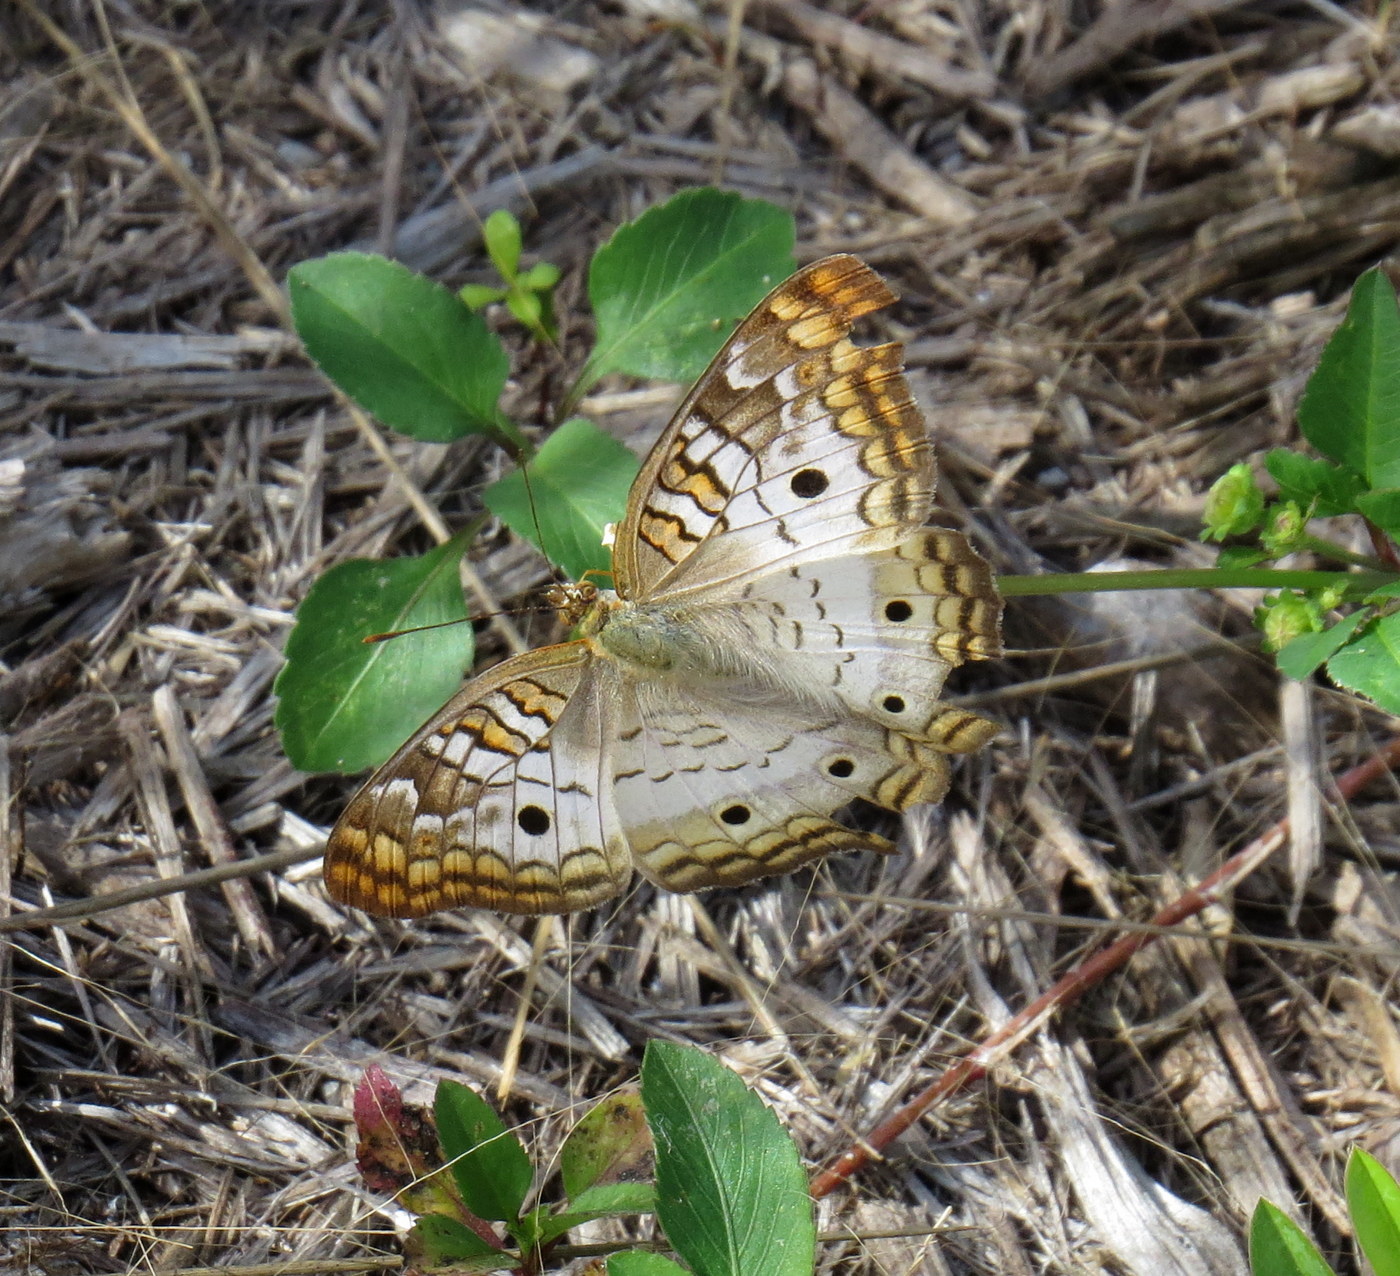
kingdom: Animalia
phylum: Arthropoda
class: Insecta
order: Lepidoptera
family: Nymphalidae
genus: Anartia
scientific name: Anartia jatrophae
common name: White peacock
